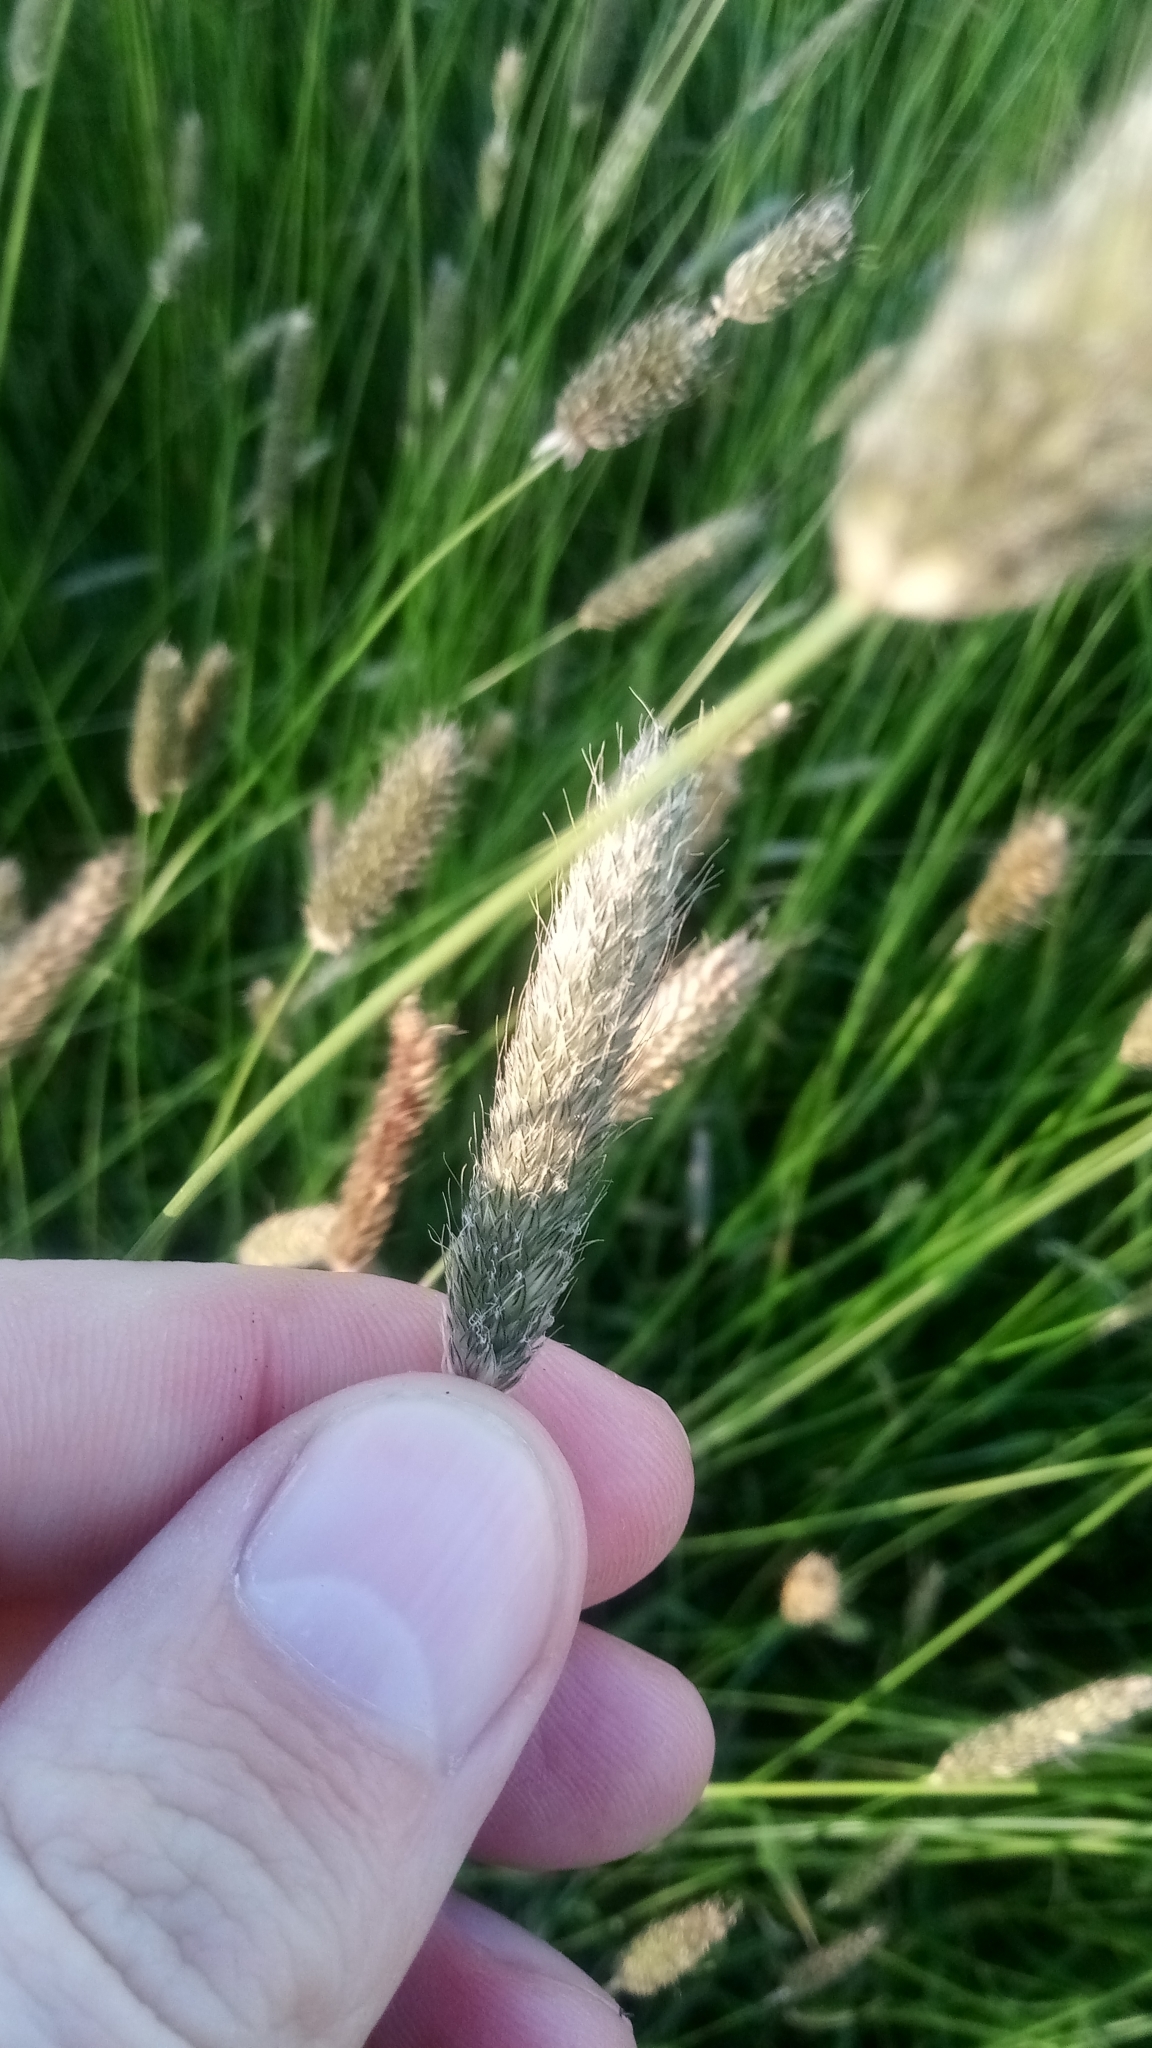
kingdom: Plantae
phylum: Tracheophyta
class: Liliopsida
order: Poales
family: Poaceae
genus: Alopecurus
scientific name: Alopecurus pratensis
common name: Meadow foxtail
